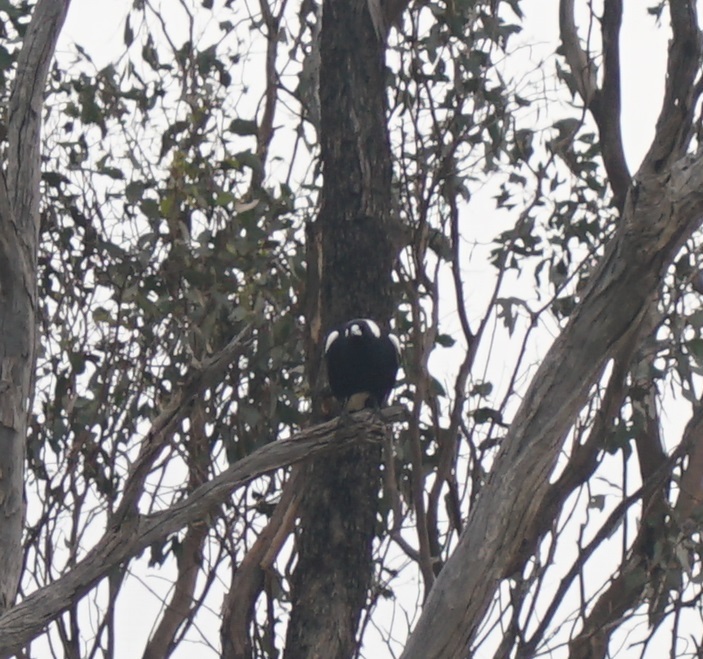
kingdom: Animalia
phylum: Chordata
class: Aves
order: Passeriformes
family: Cracticidae
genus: Gymnorhina
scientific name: Gymnorhina tibicen
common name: Australian magpie
